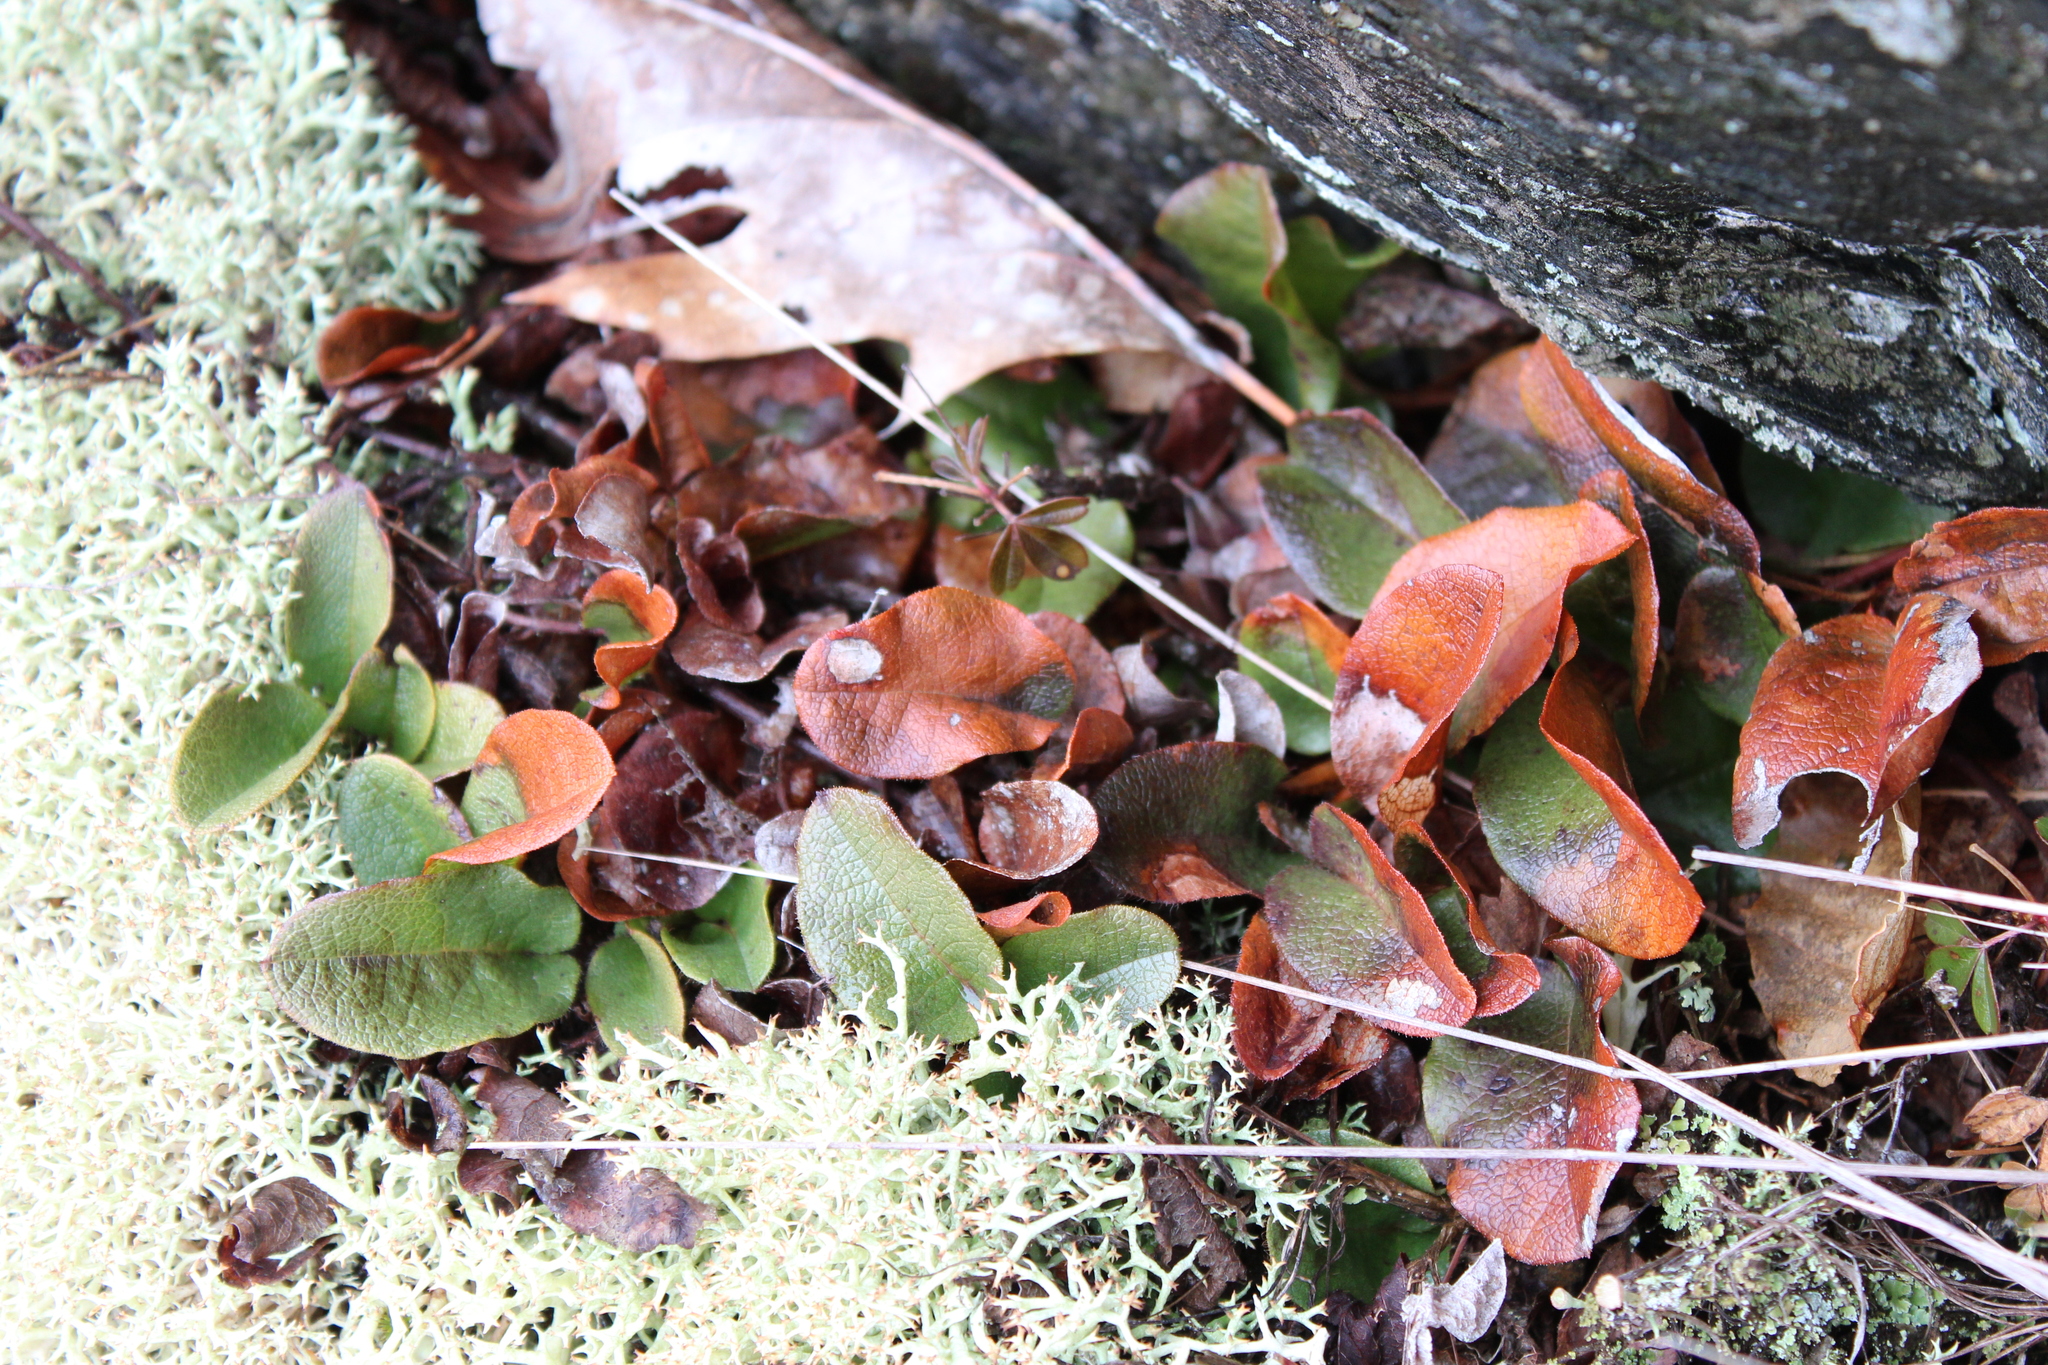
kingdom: Plantae
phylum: Tracheophyta
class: Magnoliopsida
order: Ericales
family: Ericaceae
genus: Epigaea
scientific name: Epigaea repens
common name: Gravelroot
